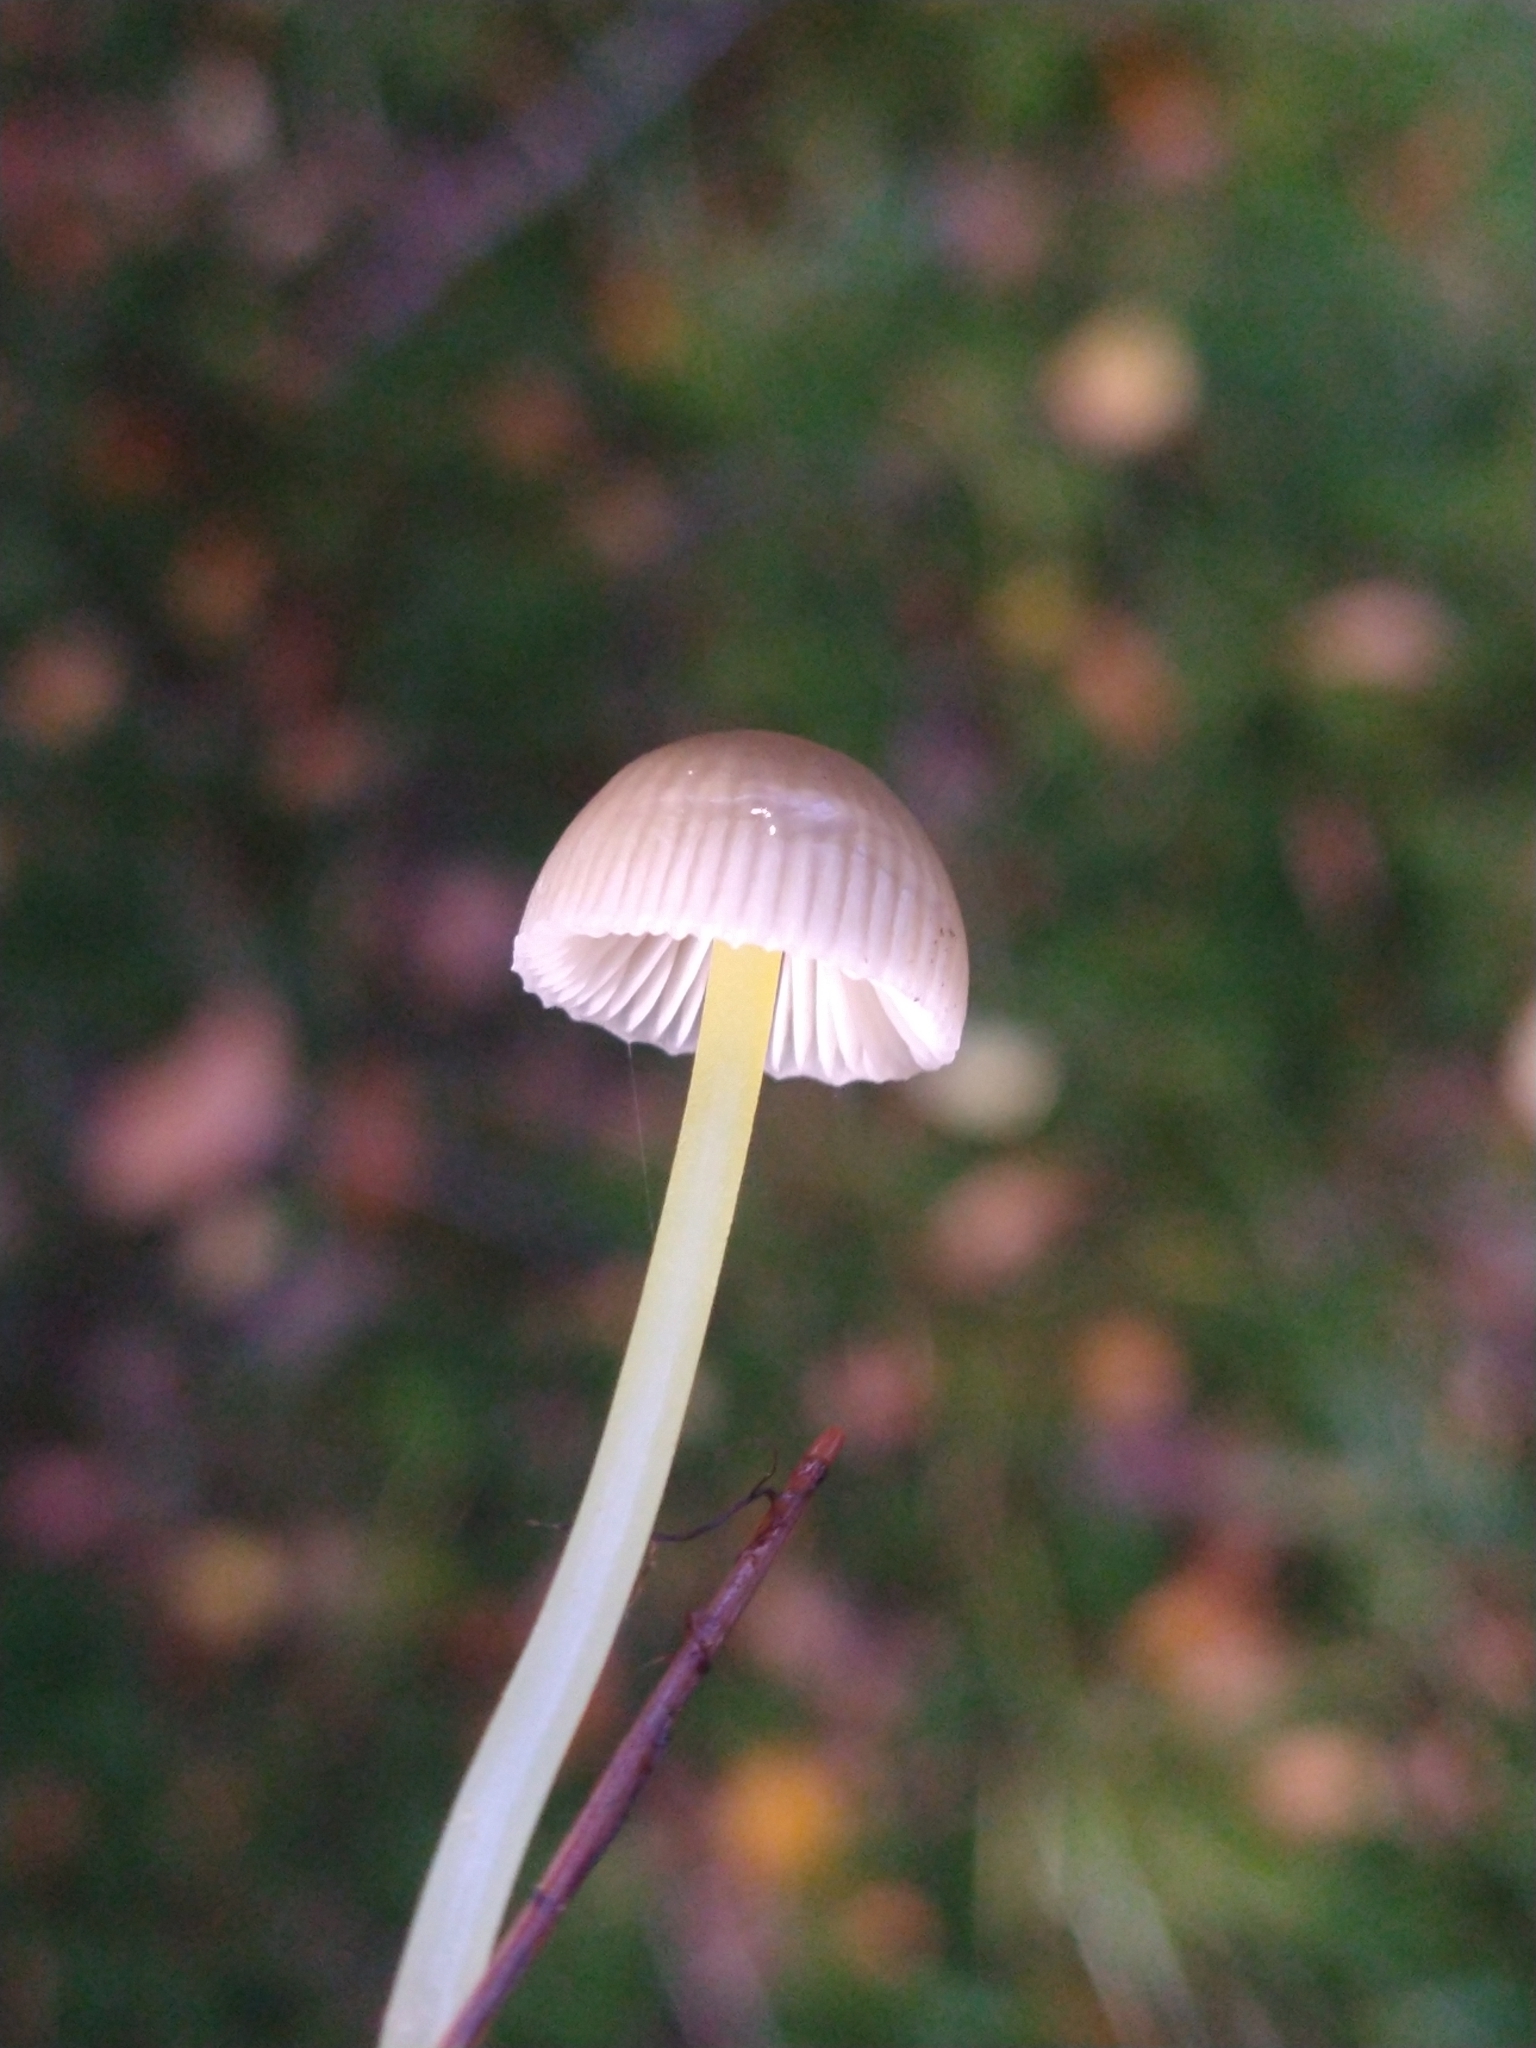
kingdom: Fungi
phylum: Basidiomycota
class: Agaricomycetes
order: Agaricales
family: Mycenaceae
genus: Mycena
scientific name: Mycena epipterygia
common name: Yellowleg bonnet
